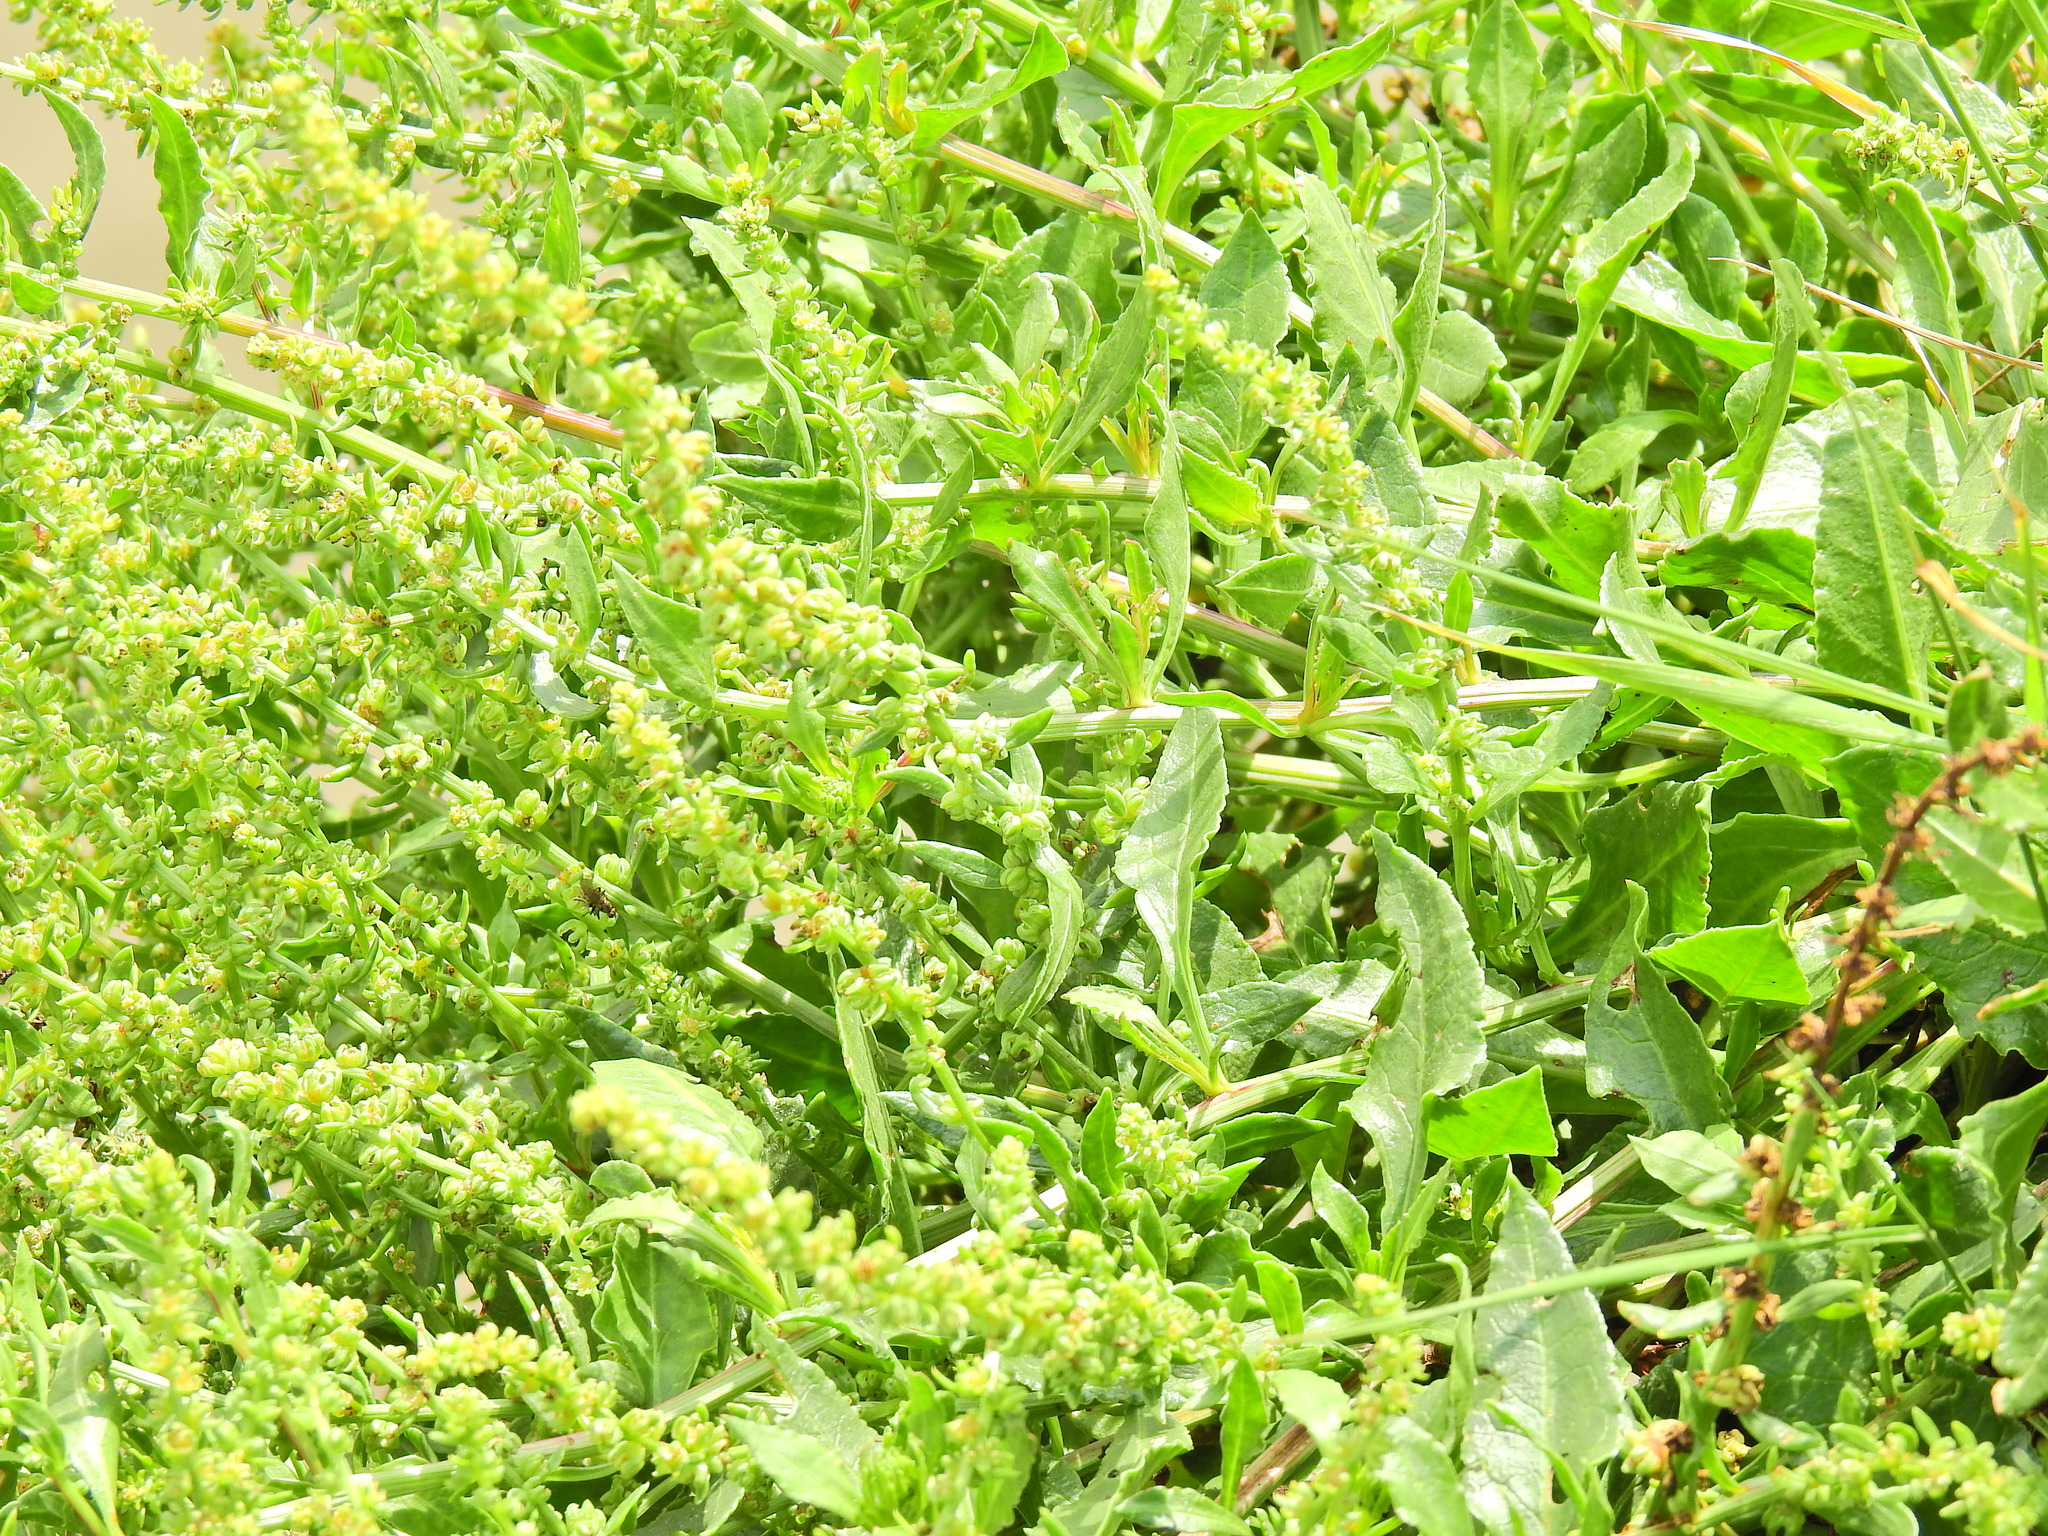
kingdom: Plantae
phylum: Tracheophyta
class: Magnoliopsida
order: Caryophyllales
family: Amaranthaceae
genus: Beta
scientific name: Beta vulgaris
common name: Beet
